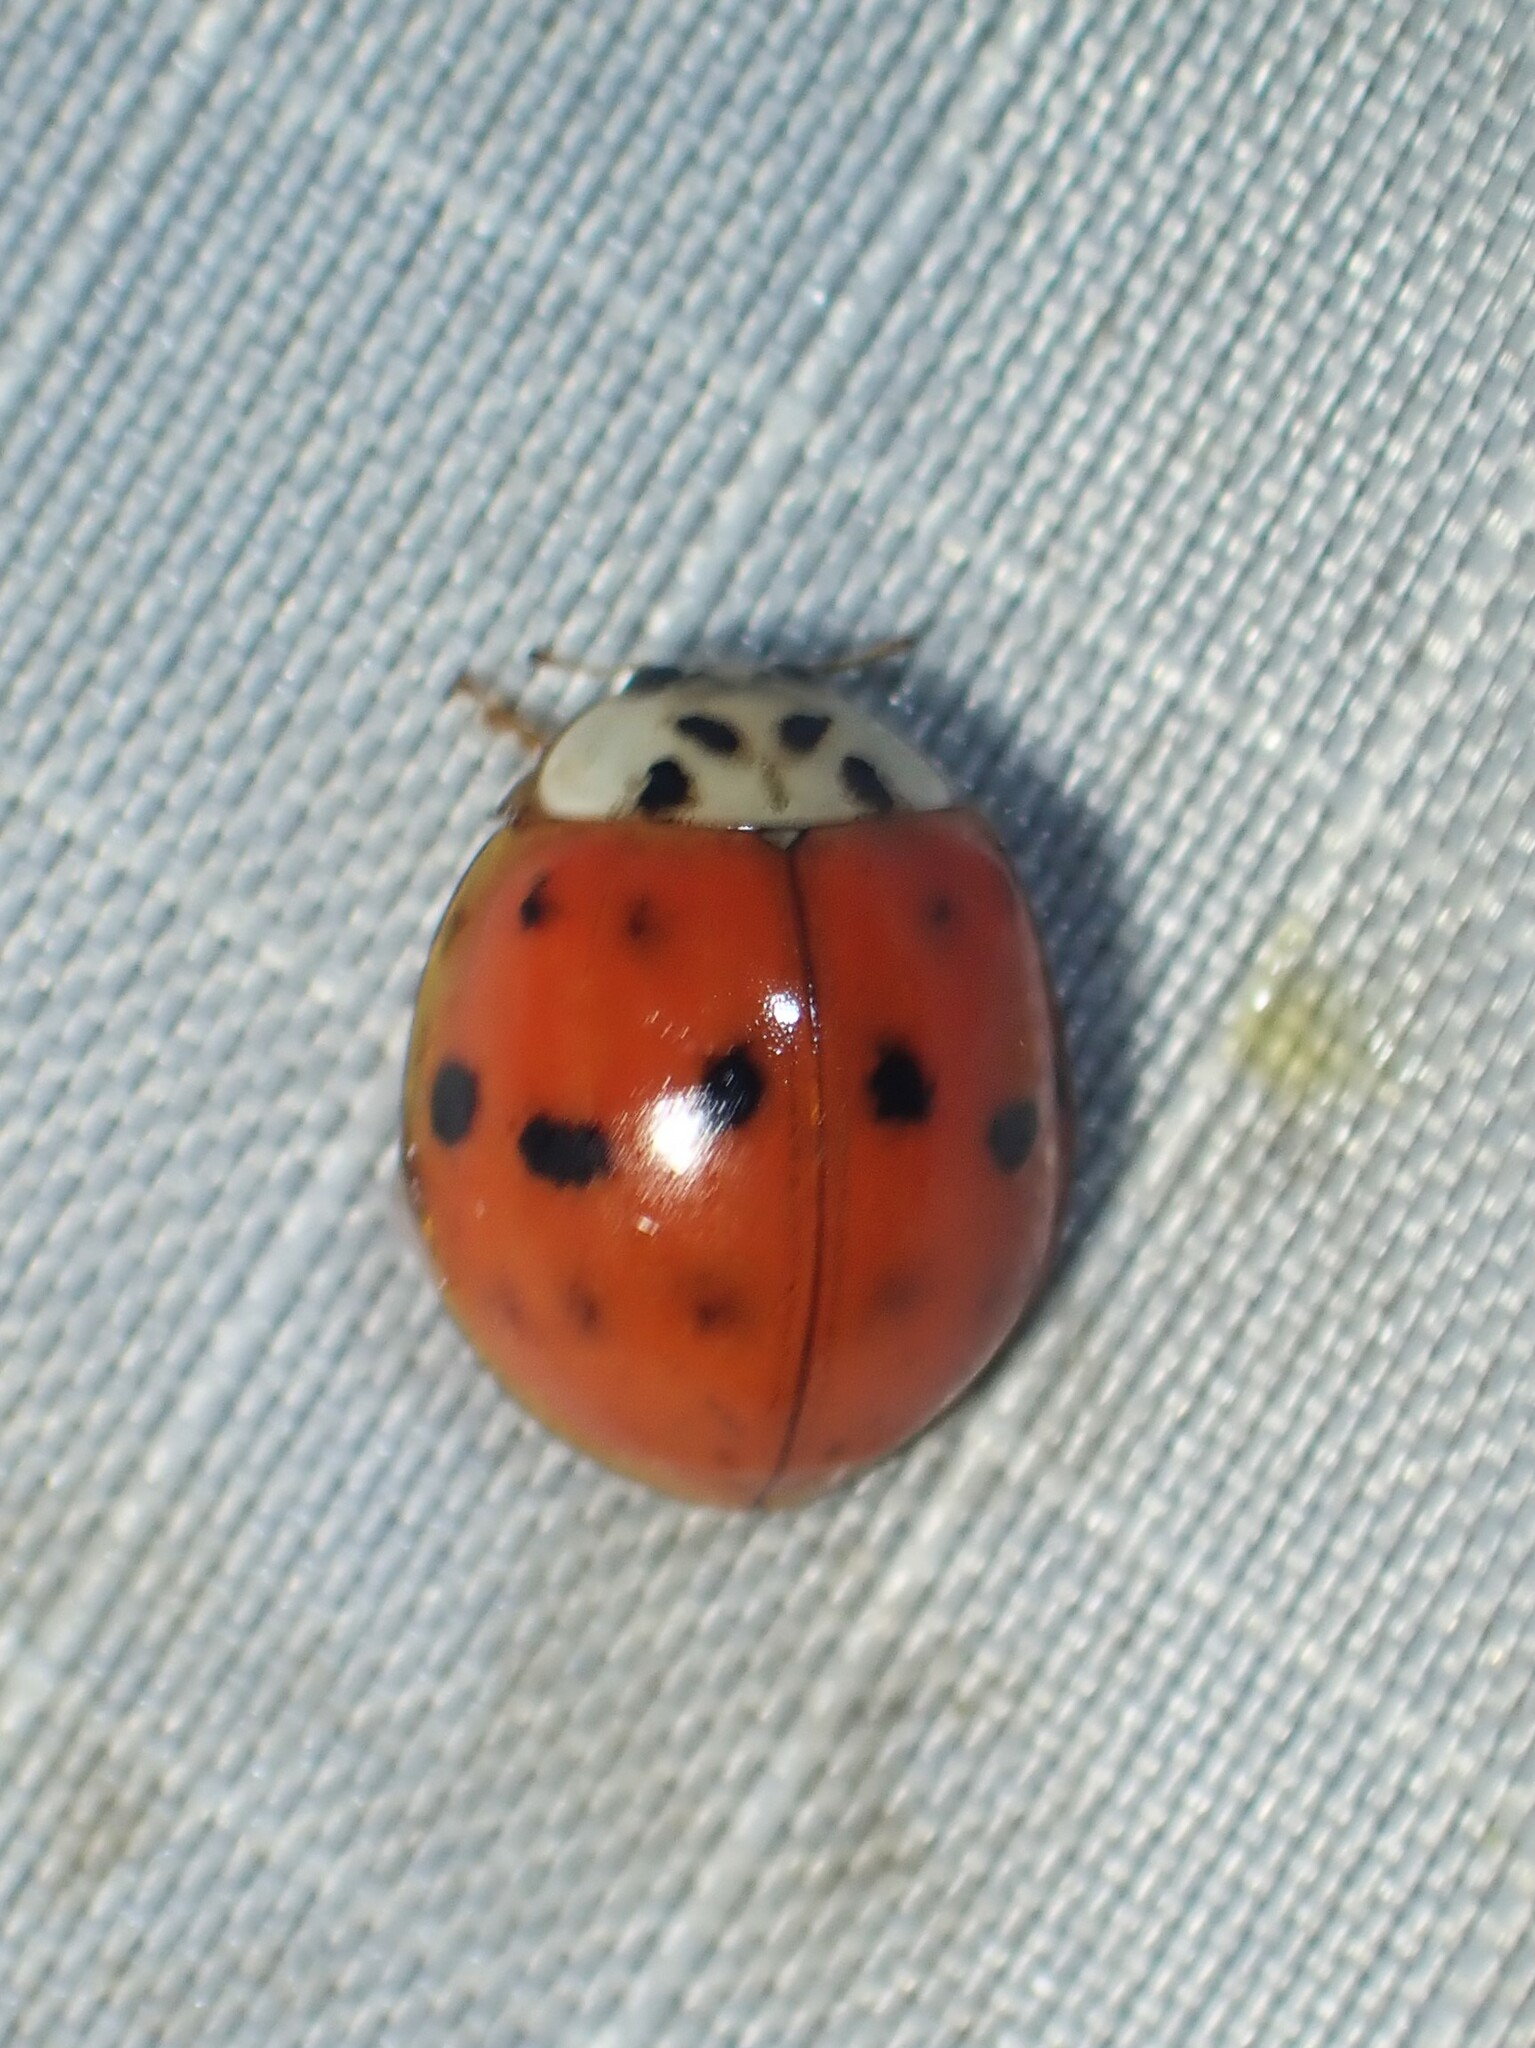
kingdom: Animalia
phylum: Arthropoda
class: Insecta
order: Coleoptera
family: Coccinellidae
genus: Harmonia
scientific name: Harmonia axyridis
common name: Harlequin ladybird
